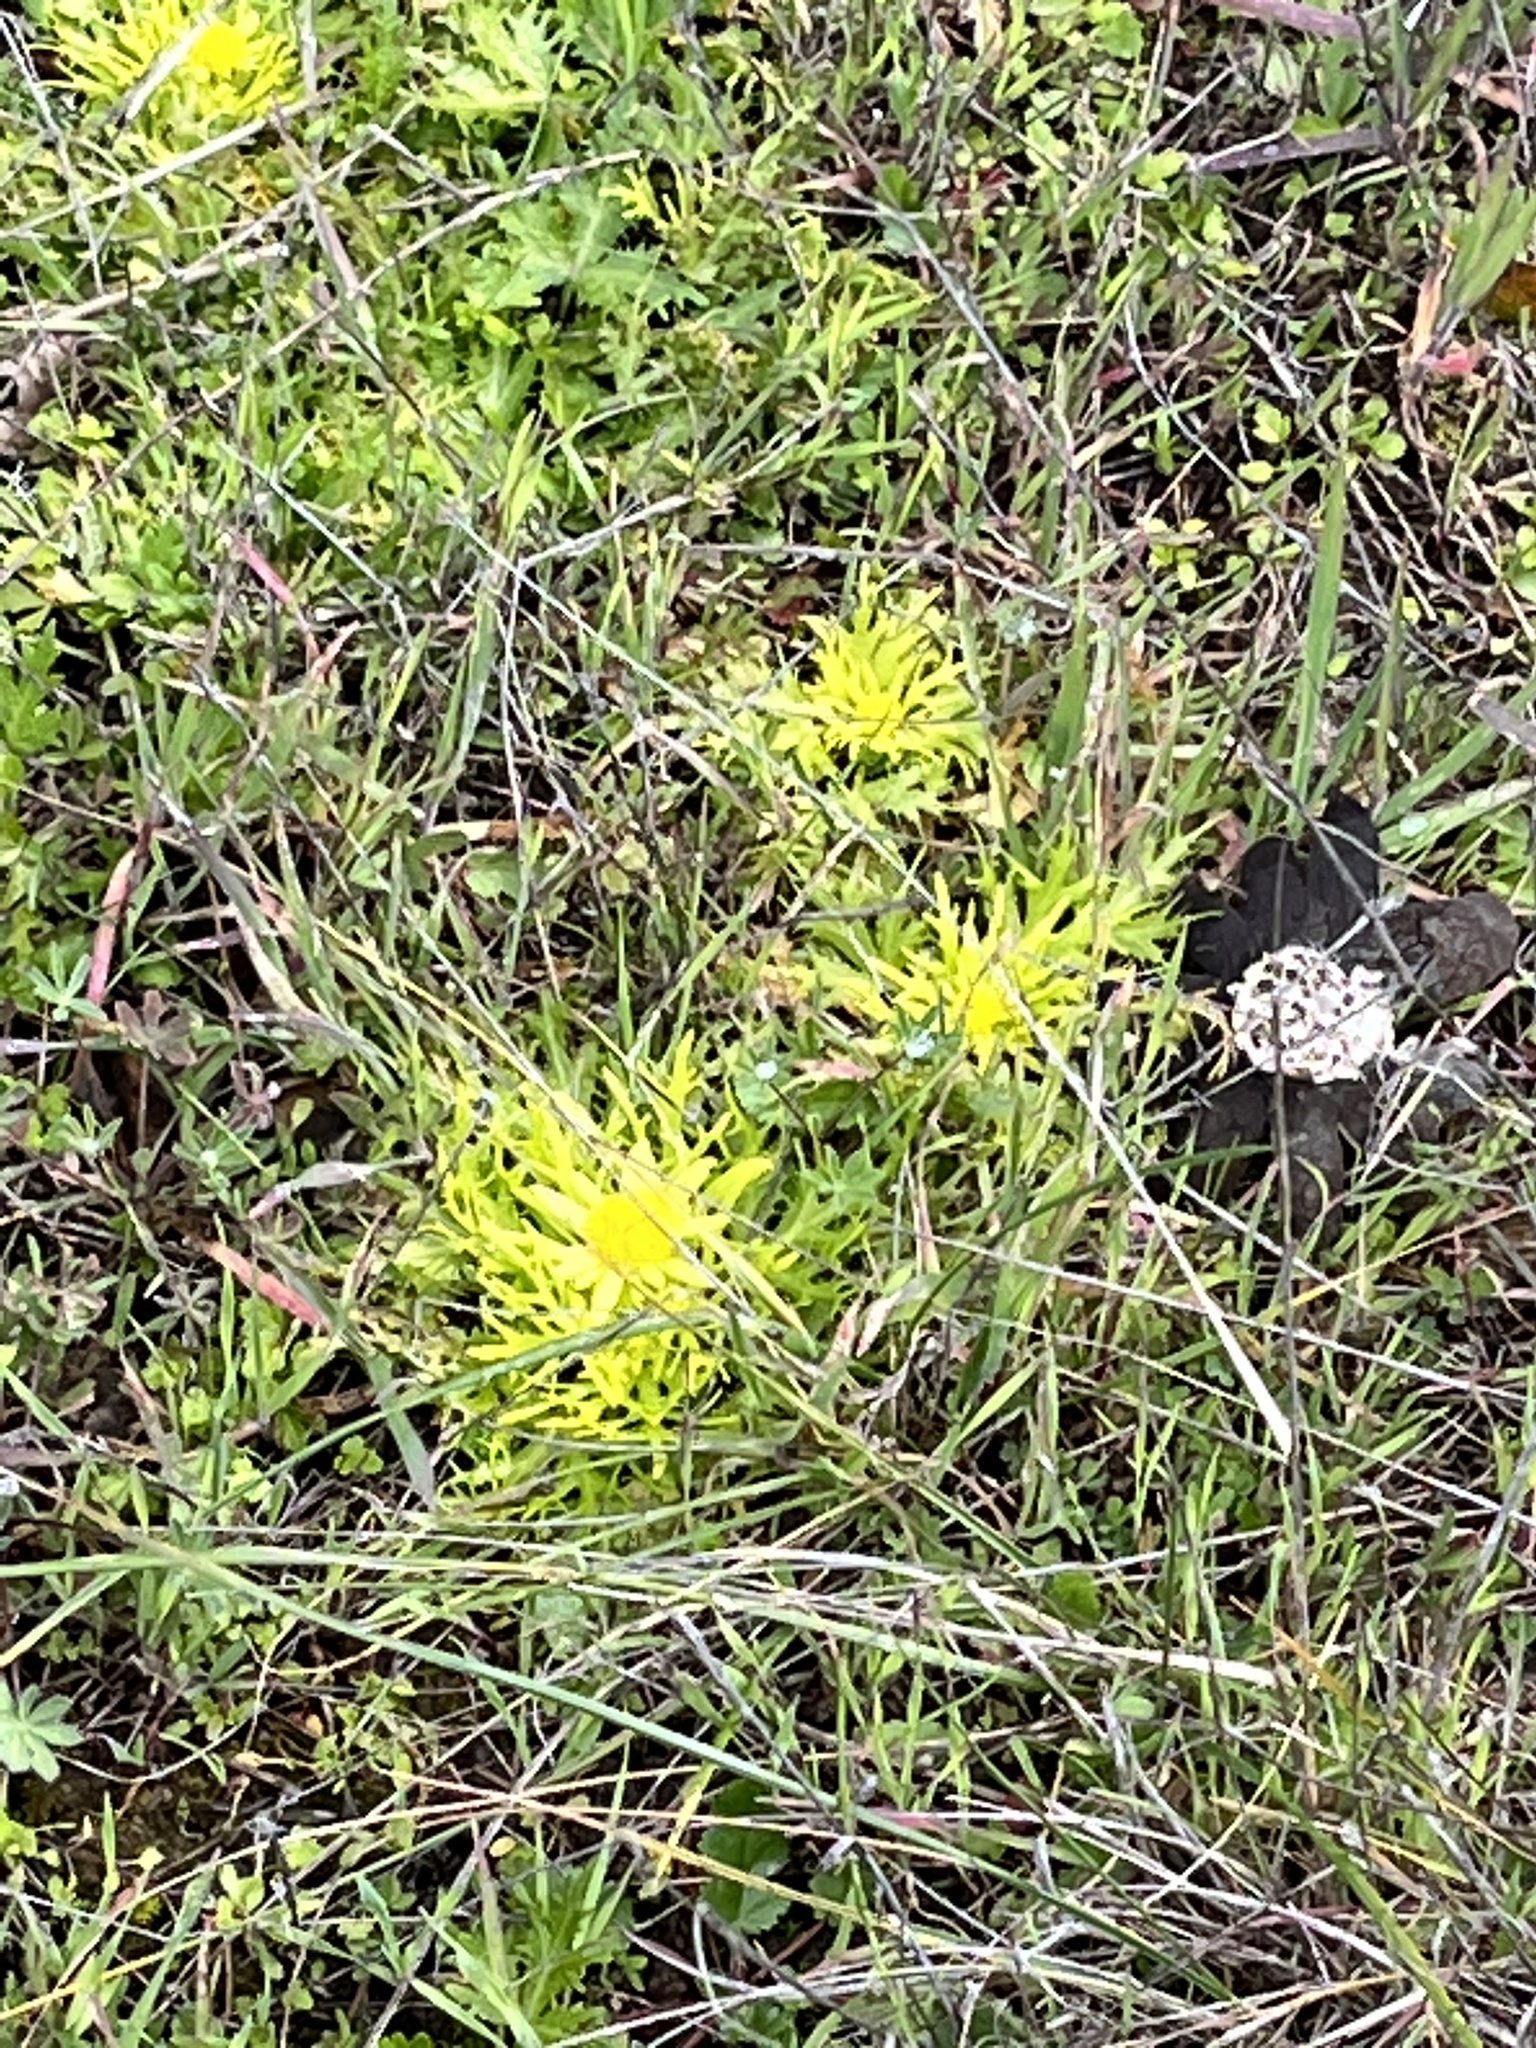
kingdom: Plantae
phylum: Tracheophyta
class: Magnoliopsida
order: Apiales
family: Apiaceae
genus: Sanicula
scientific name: Sanicula arctopoides
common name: Footsteps-of-spring
